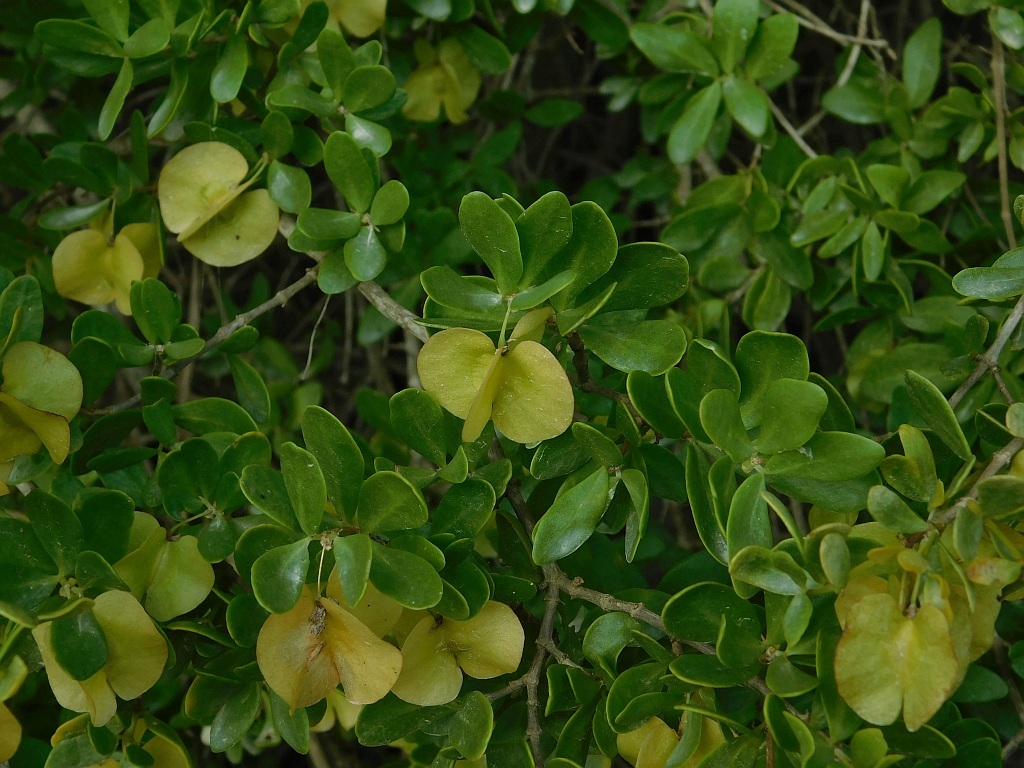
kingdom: Plantae
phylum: Tracheophyta
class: Magnoliopsida
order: Zygophyllales
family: Zygophyllaceae
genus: Roepera
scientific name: Roepera morgsana
